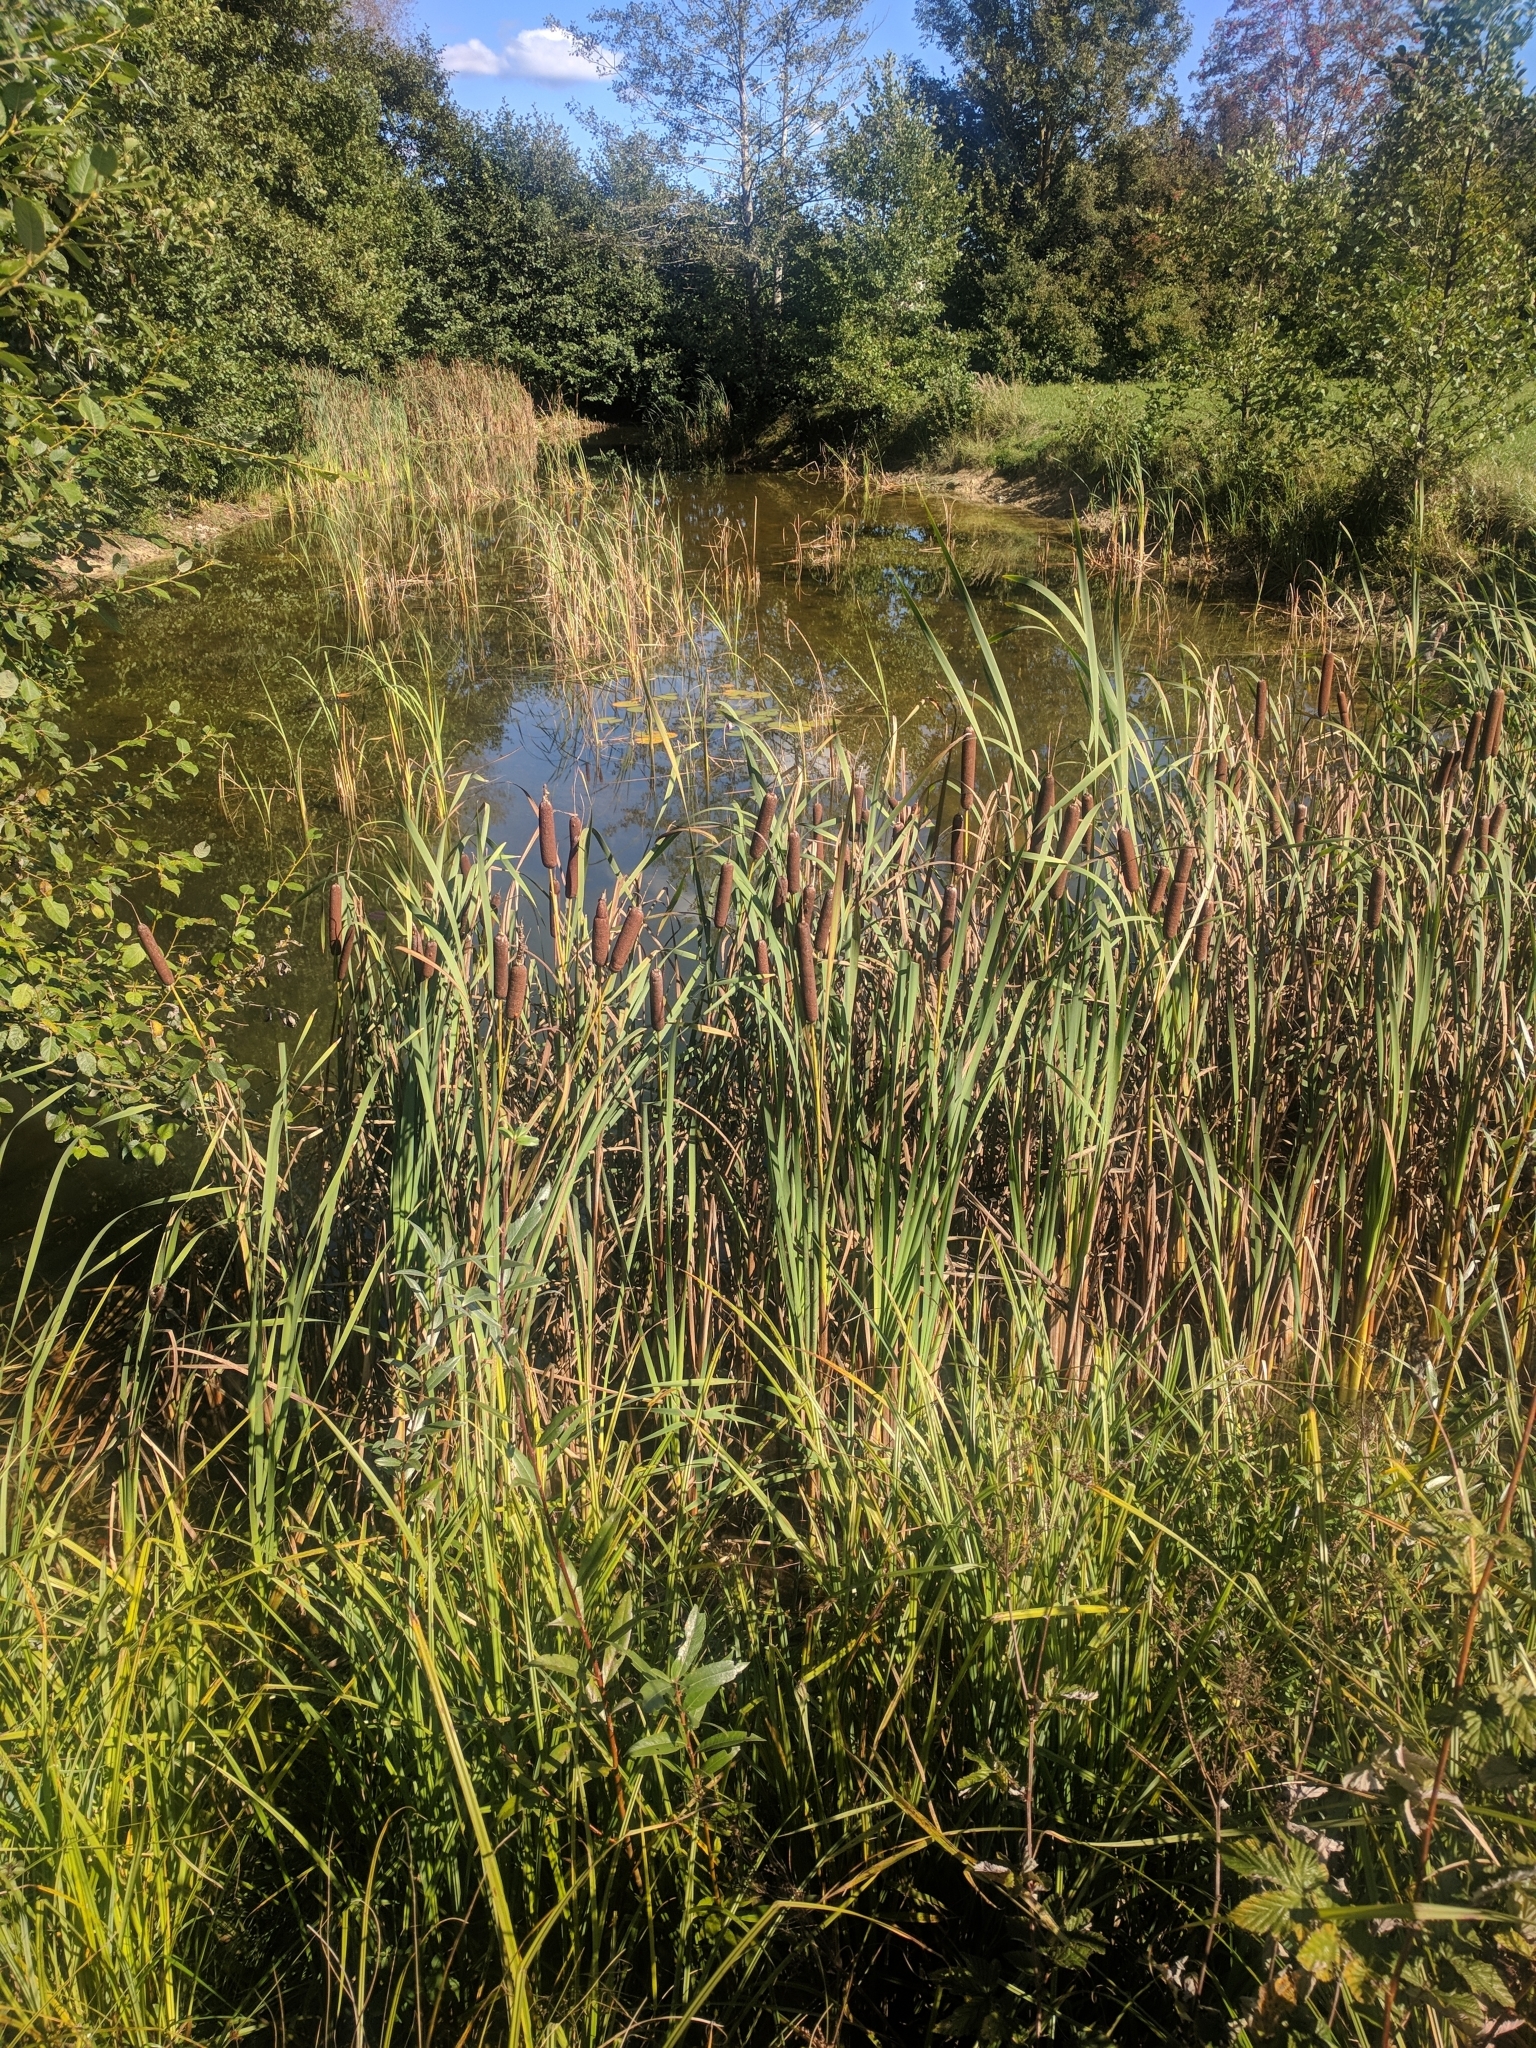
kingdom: Plantae
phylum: Tracheophyta
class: Liliopsida
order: Poales
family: Typhaceae
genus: Typha
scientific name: Typha latifolia
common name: Broadleaf cattail
